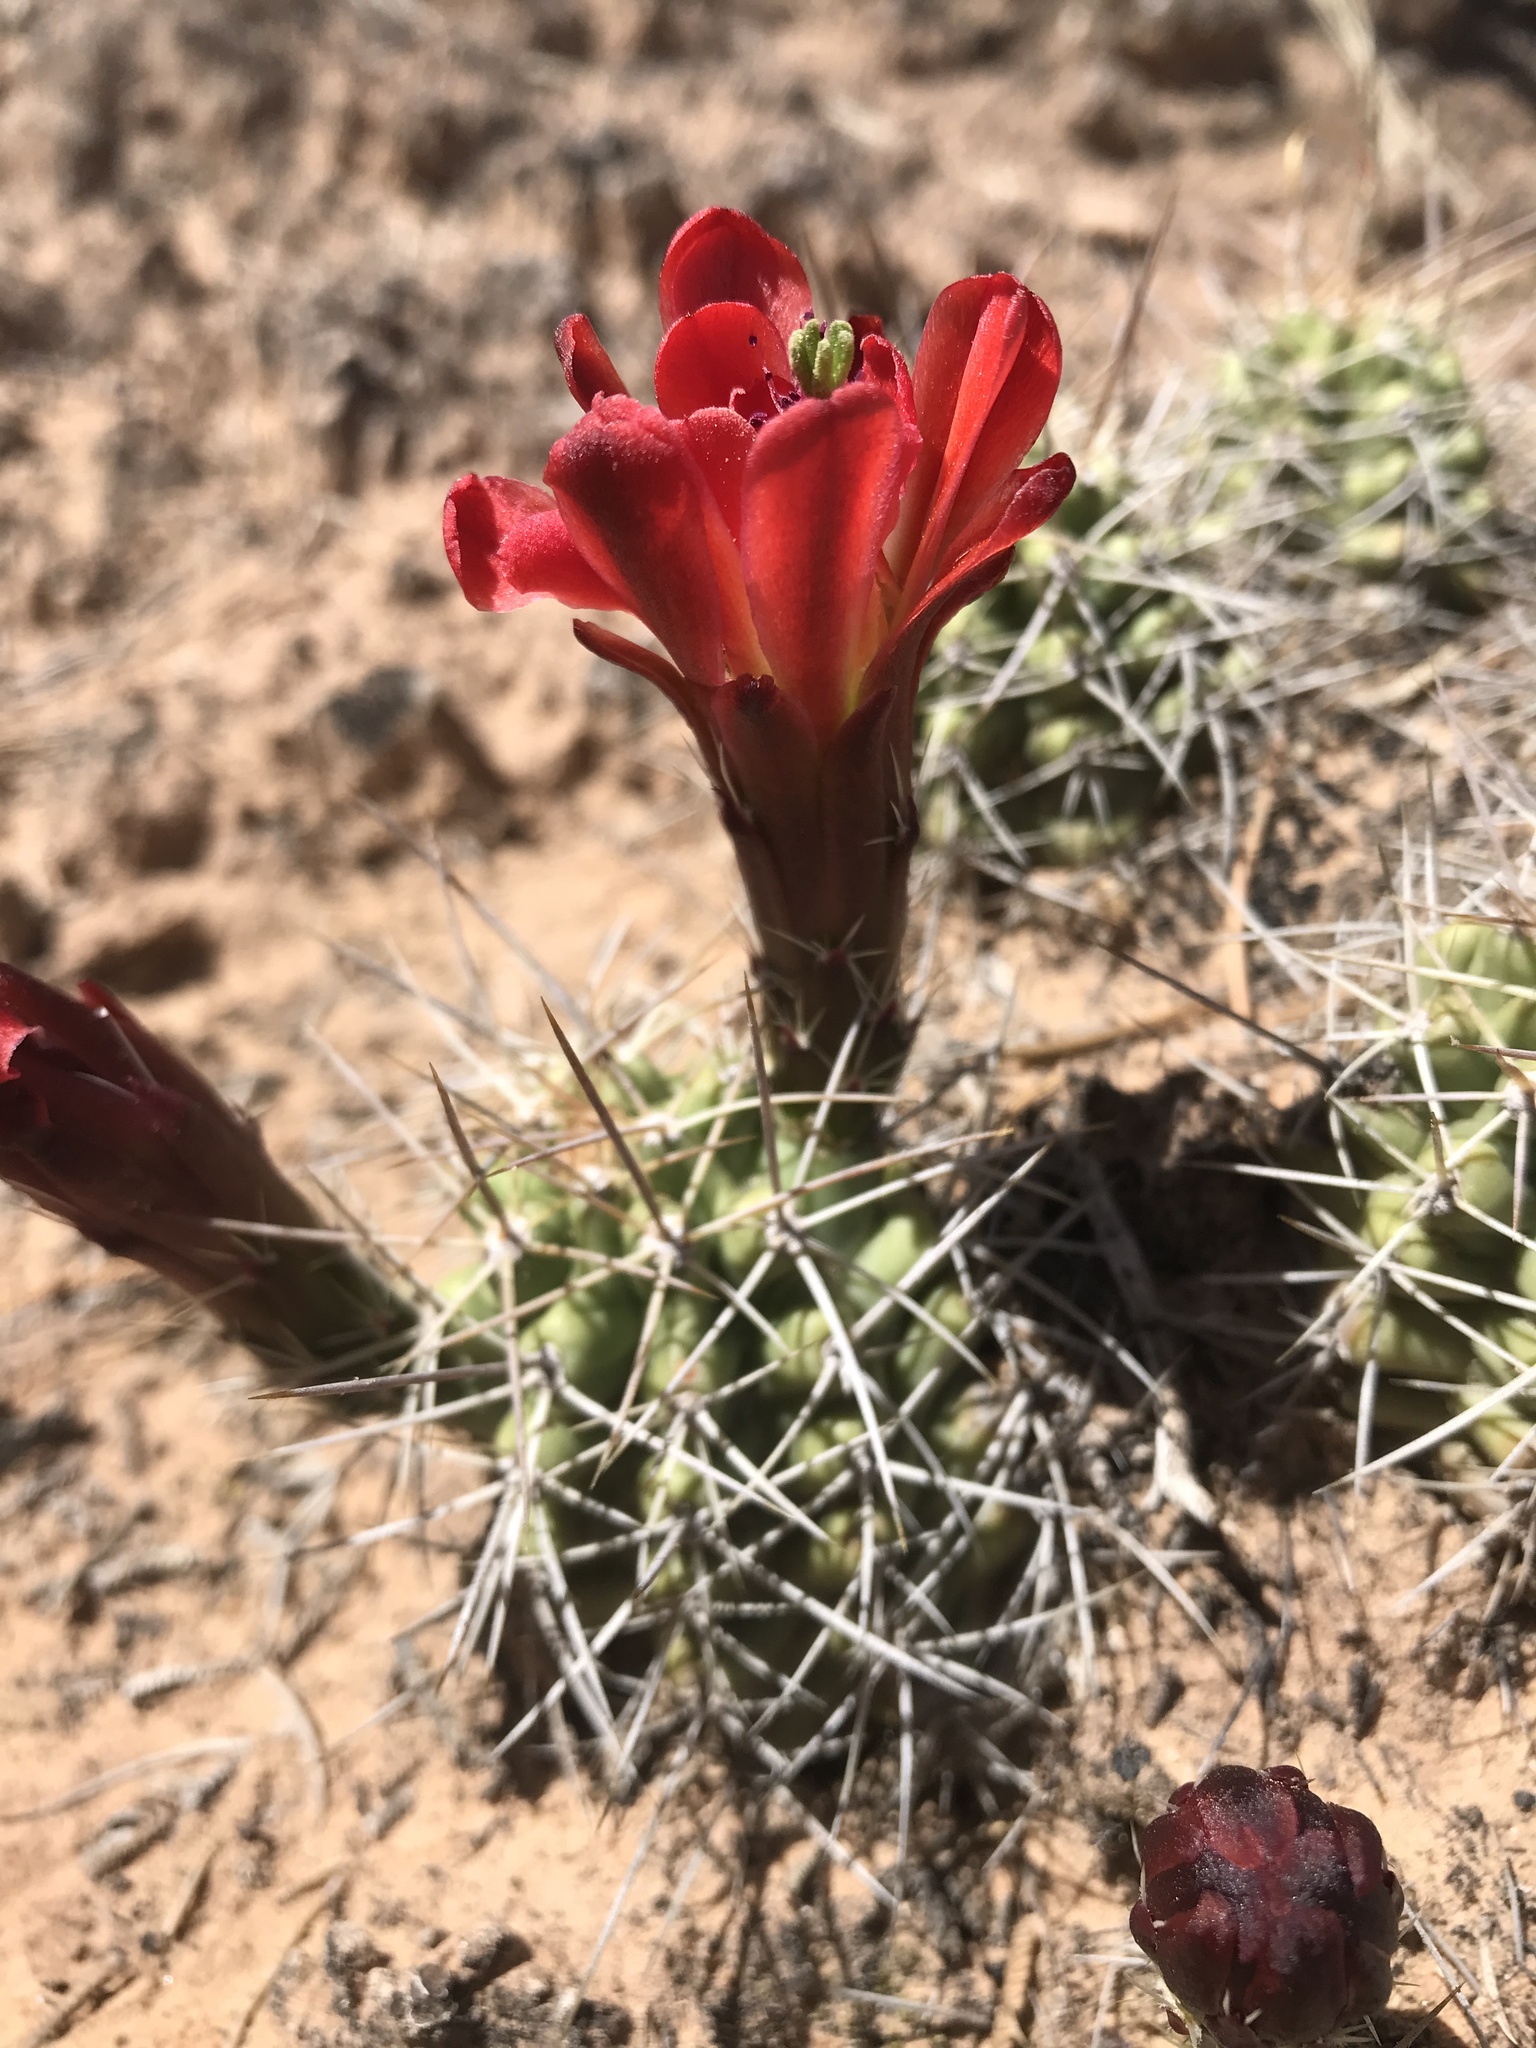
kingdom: Plantae
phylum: Tracheophyta
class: Magnoliopsida
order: Caryophyllales
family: Cactaceae
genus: Echinocereus
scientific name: Echinocereus triglochidiatus
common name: Claretcup hedgehog
